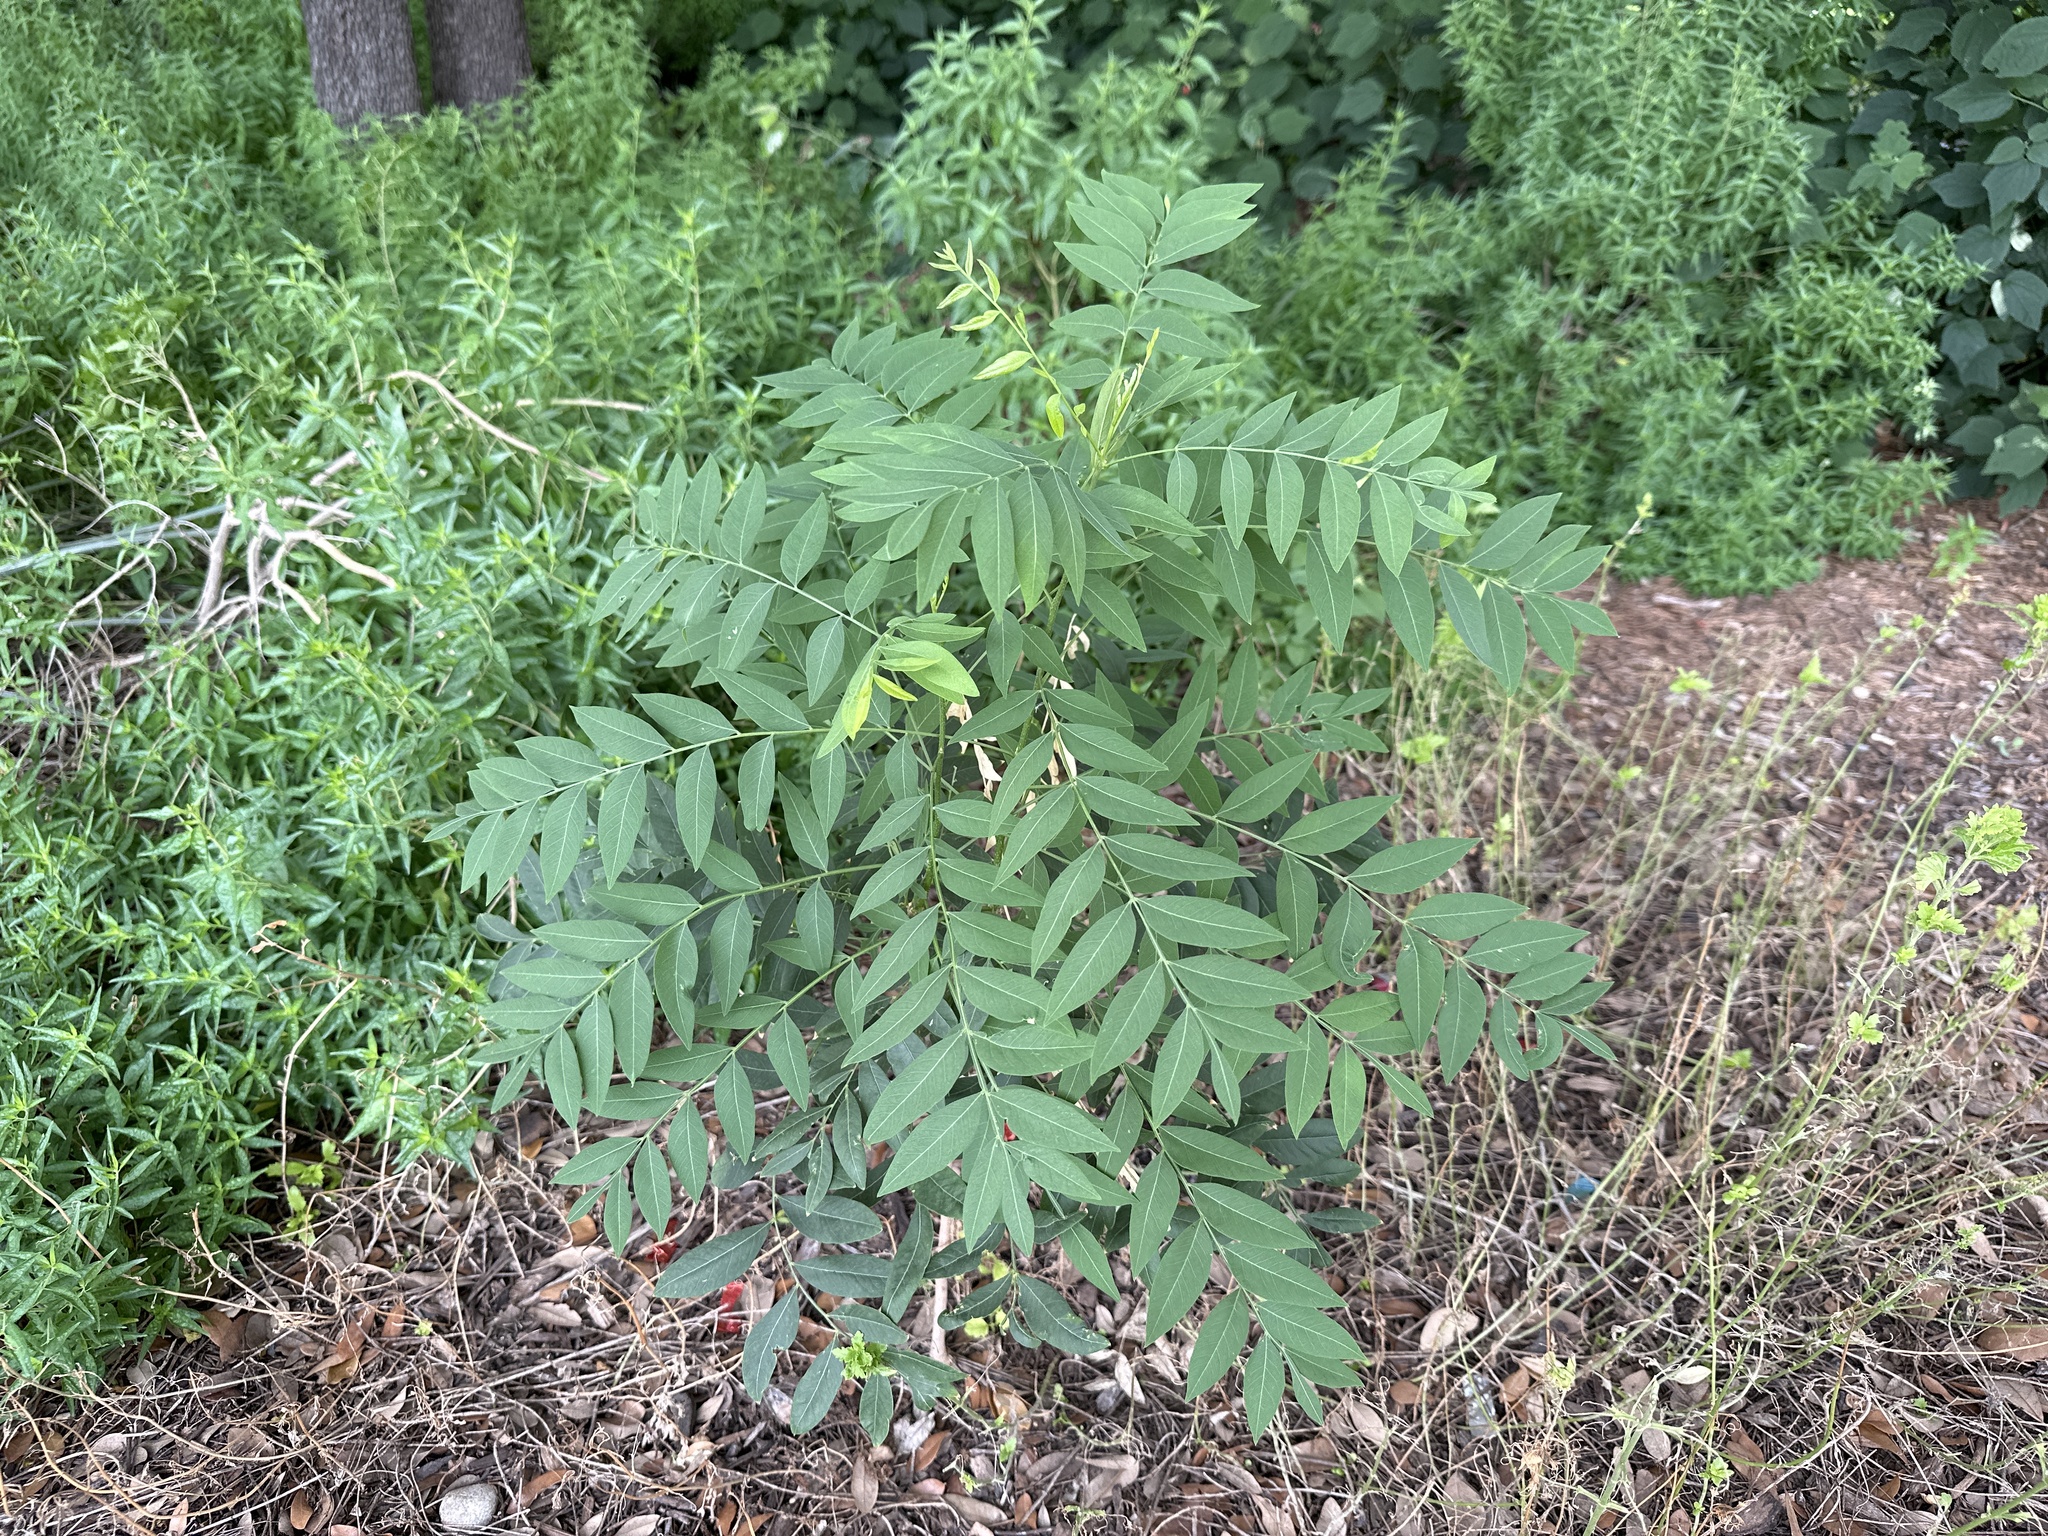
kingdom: Plantae
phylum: Tracheophyta
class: Magnoliopsida
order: Sapindales
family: Sapindaceae
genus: Sapindus
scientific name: Sapindus drummondii
